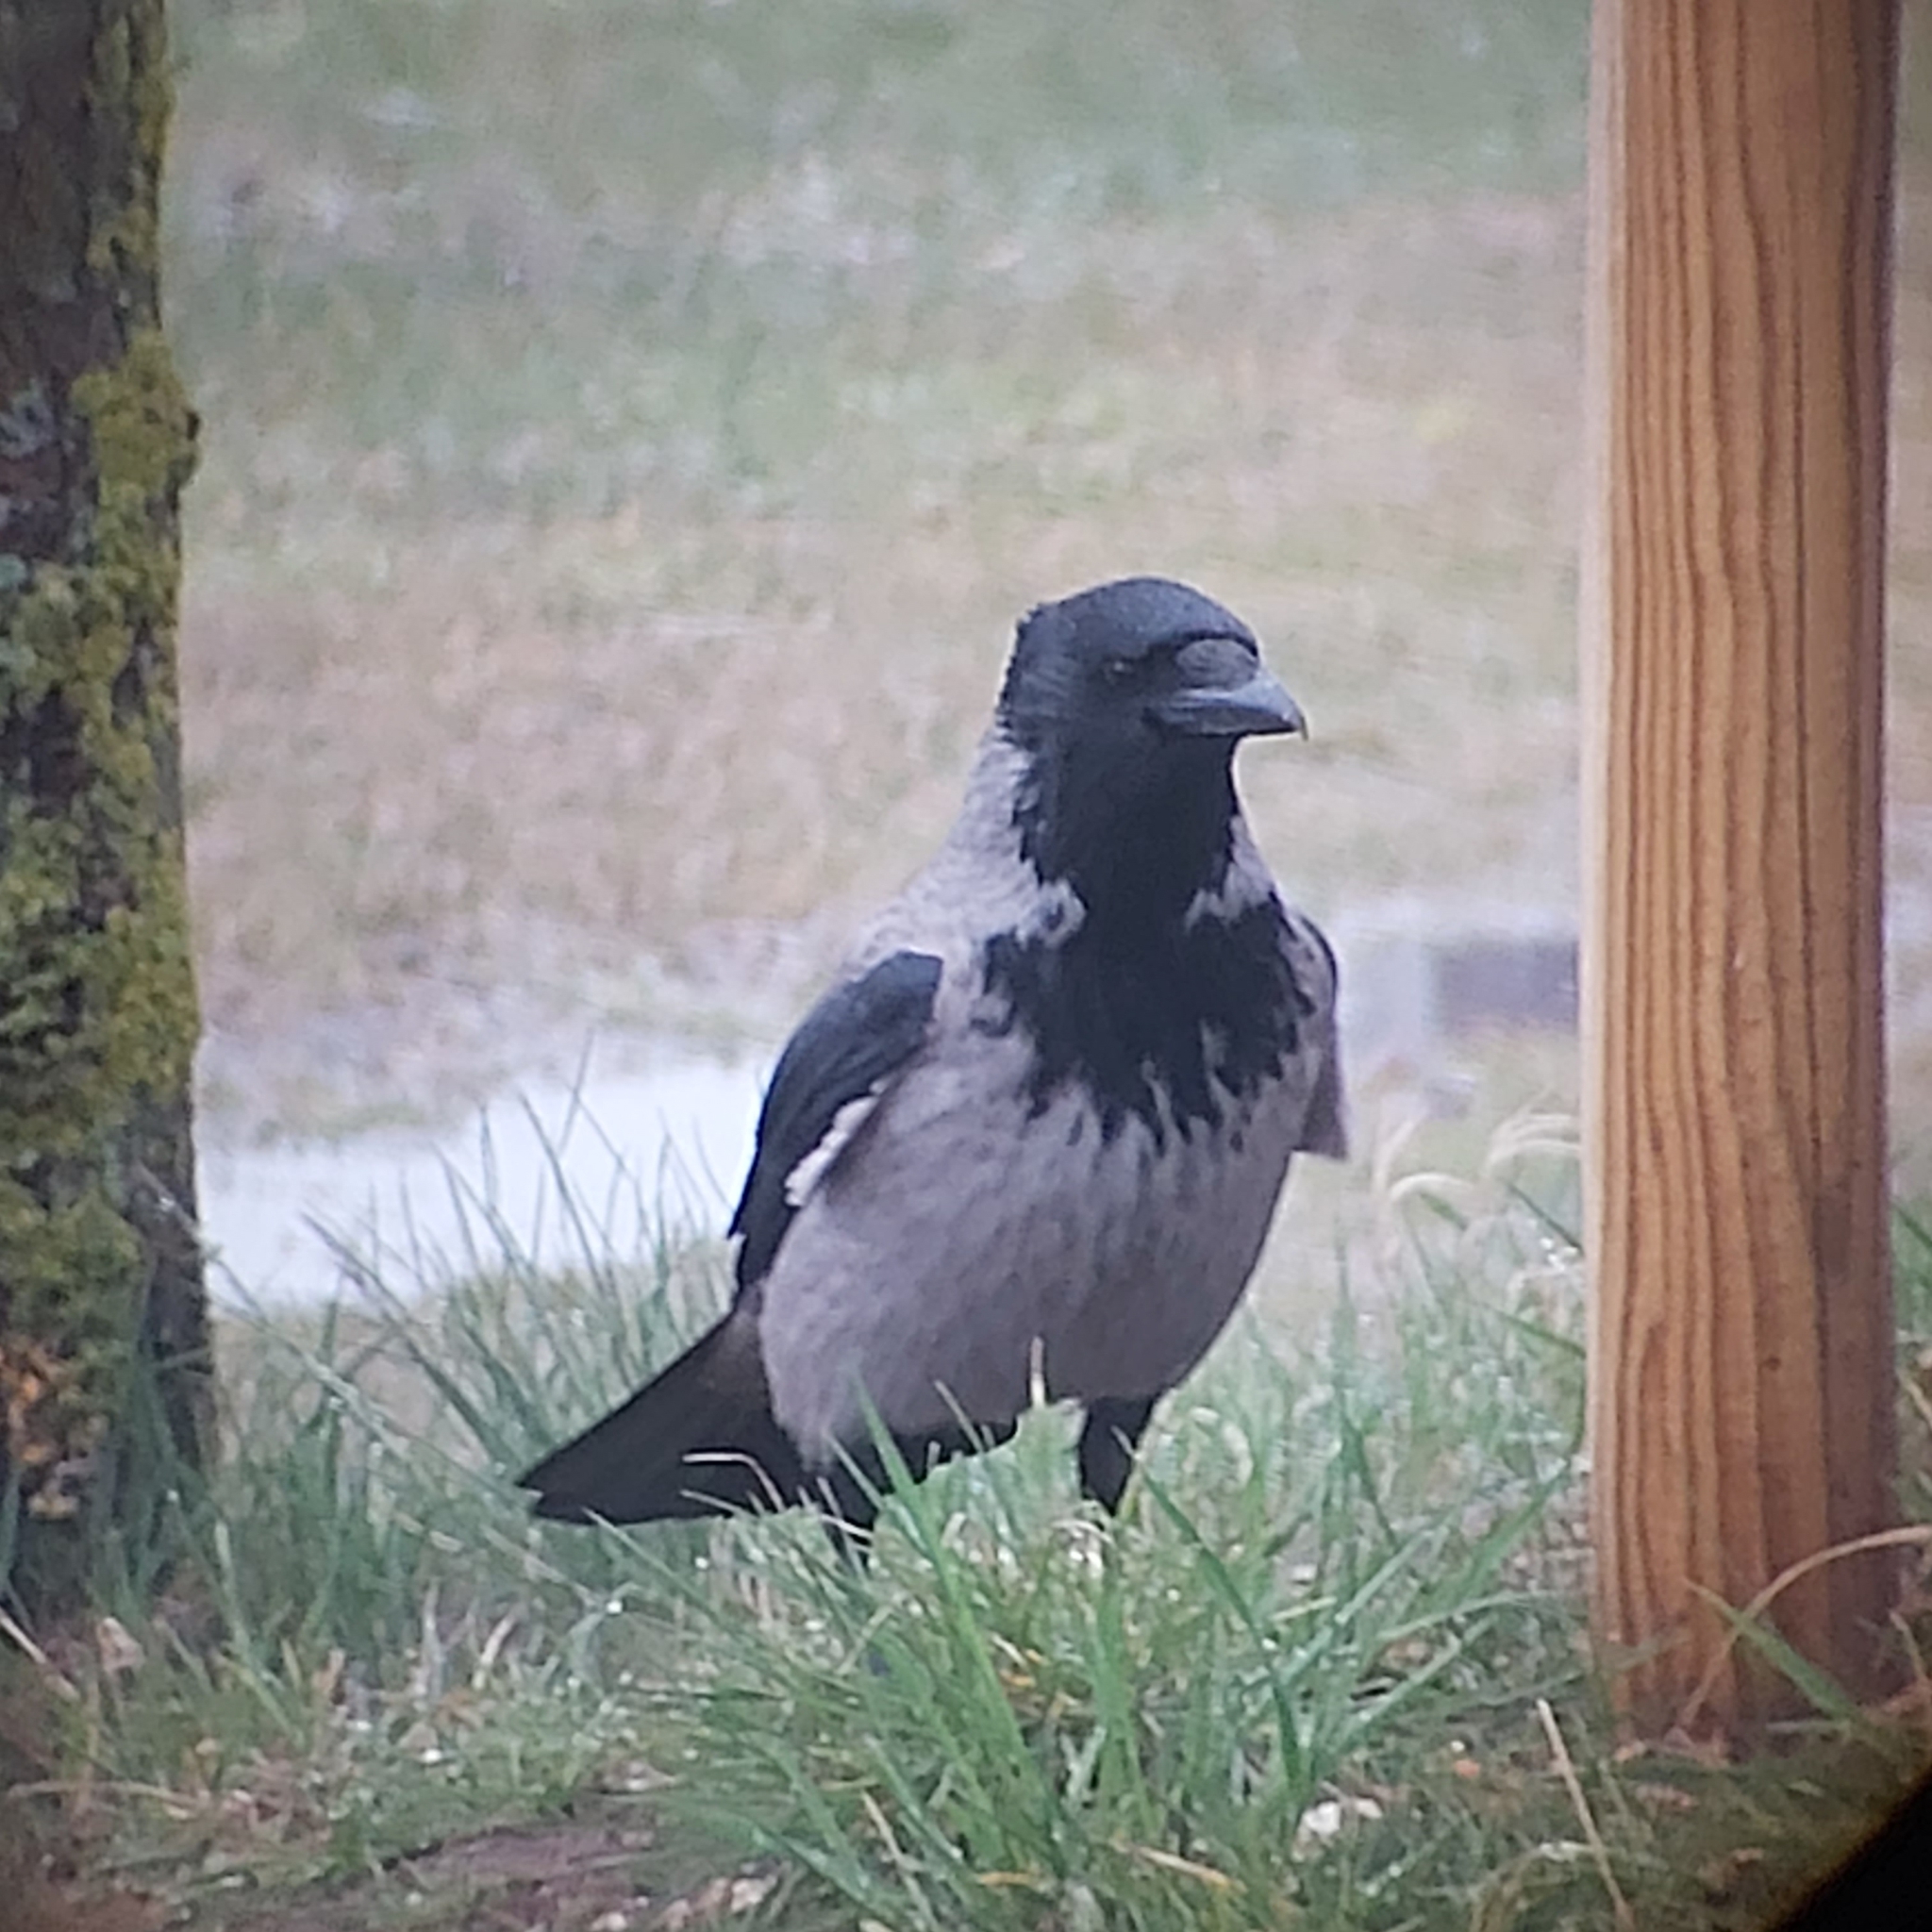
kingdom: Animalia
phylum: Chordata
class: Aves
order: Passeriformes
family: Corvidae
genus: Corvus
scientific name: Corvus cornix
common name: Hooded crow
